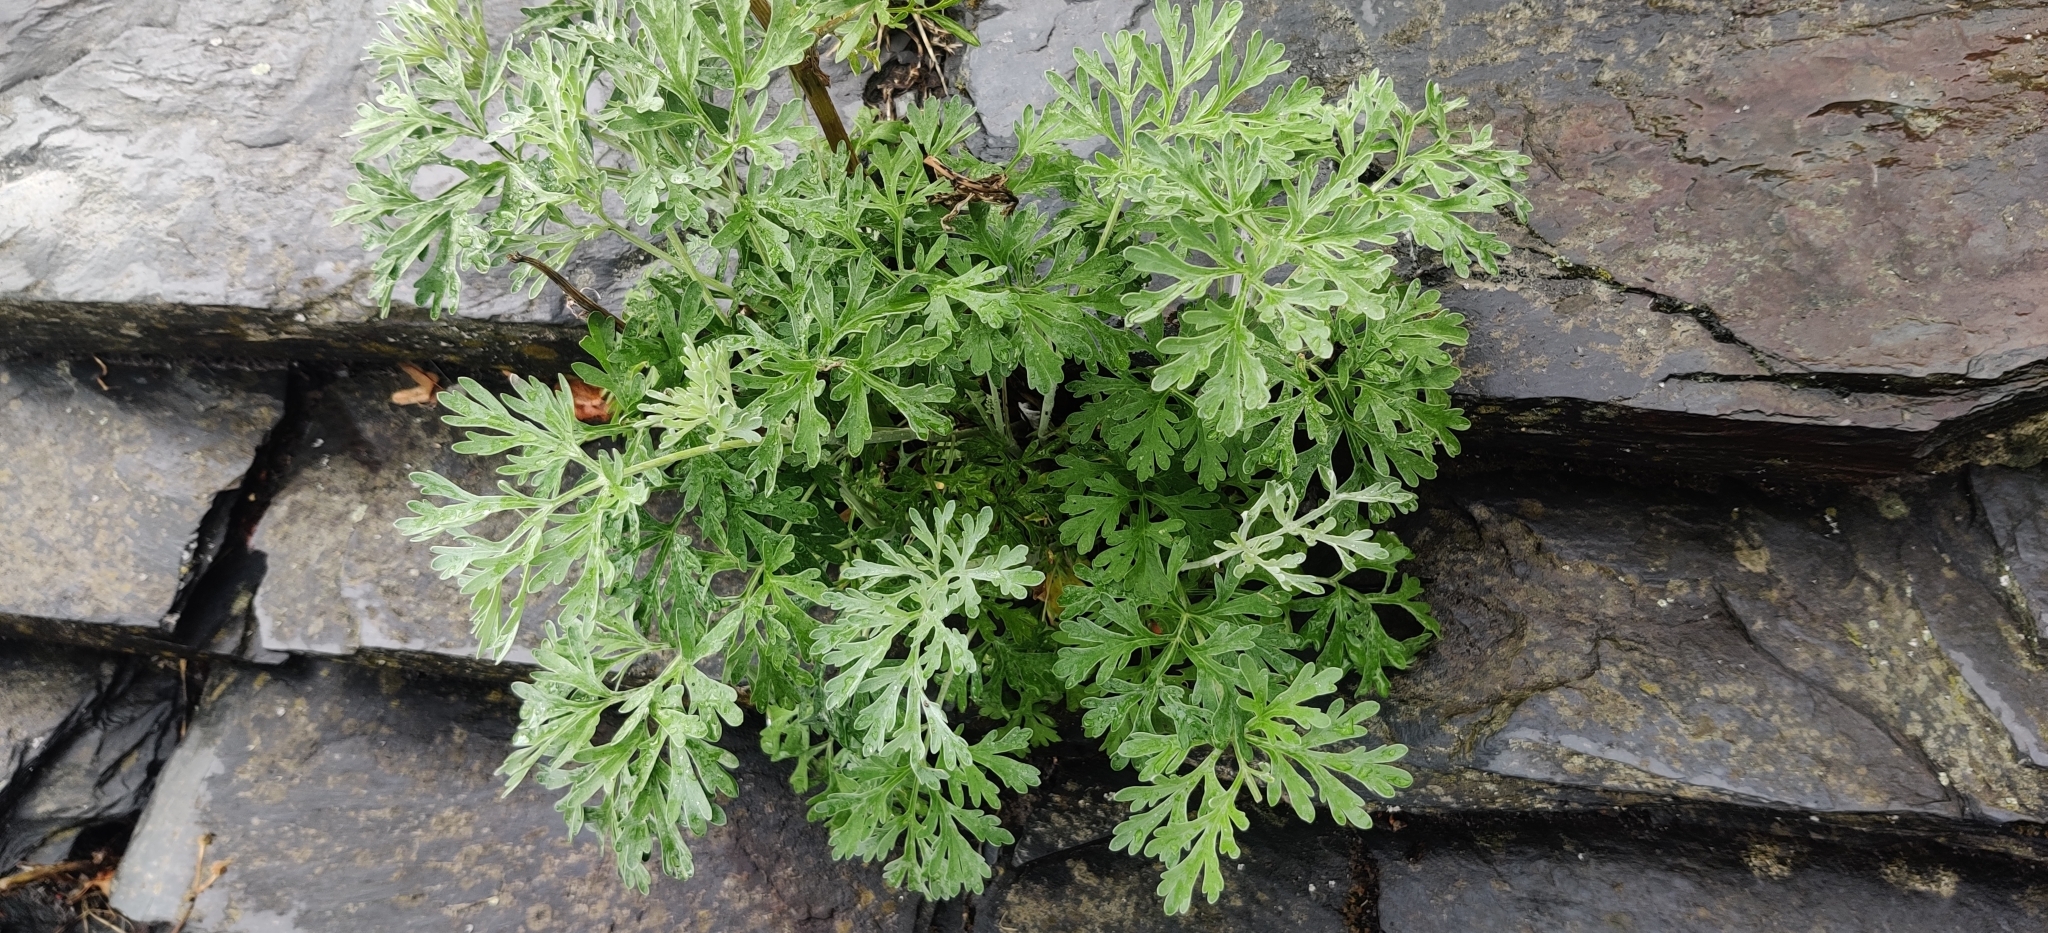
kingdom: Plantae
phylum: Tracheophyta
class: Magnoliopsida
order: Asterales
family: Asteraceae
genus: Artemisia
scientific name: Artemisia absinthium
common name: Wormwood
